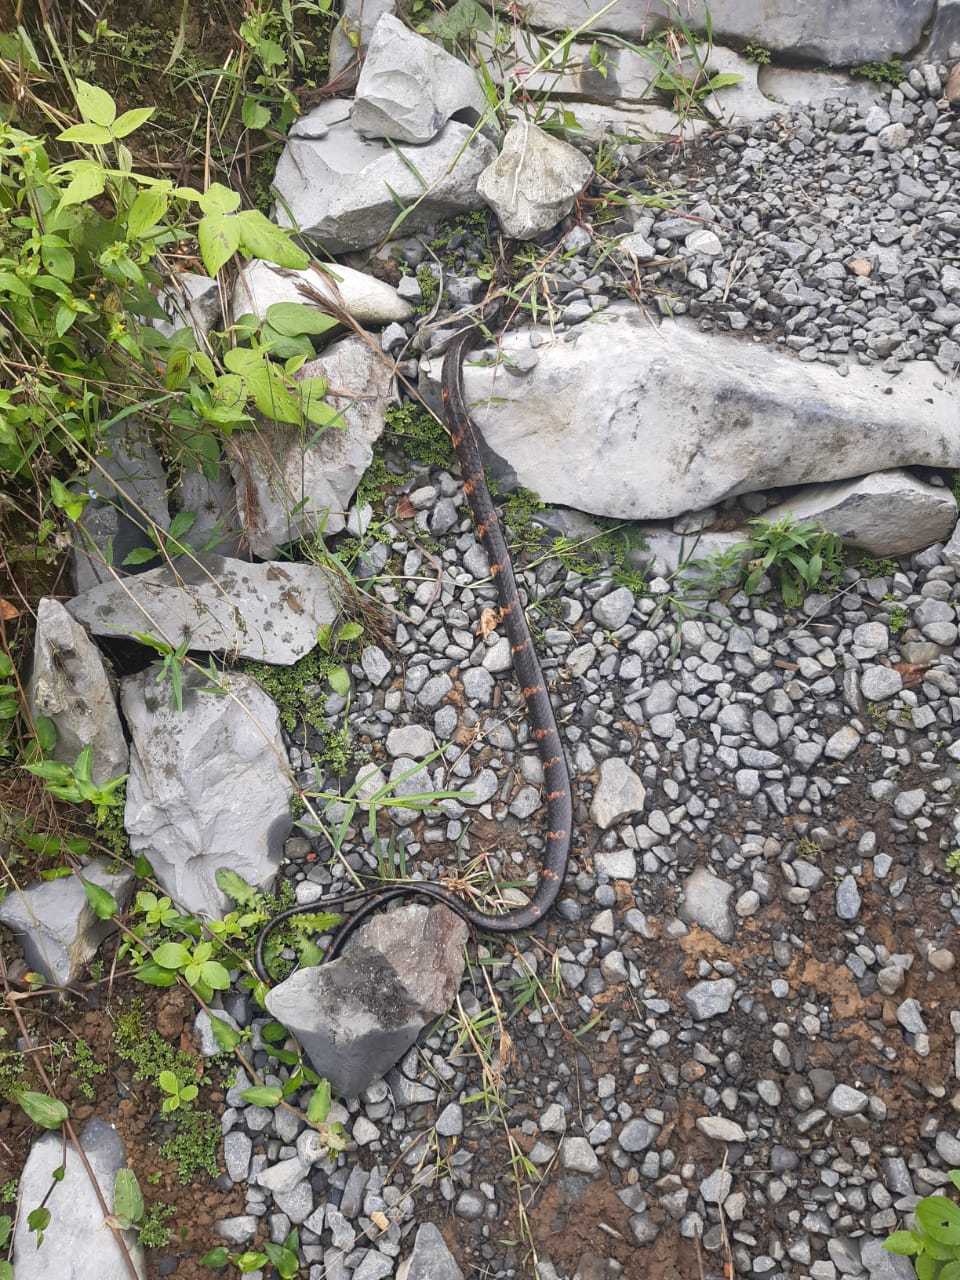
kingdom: Animalia
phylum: Chordata
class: Squamata
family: Colubridae
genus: Chironius
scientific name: Chironius grandisquamis
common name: Ecuador sipo
